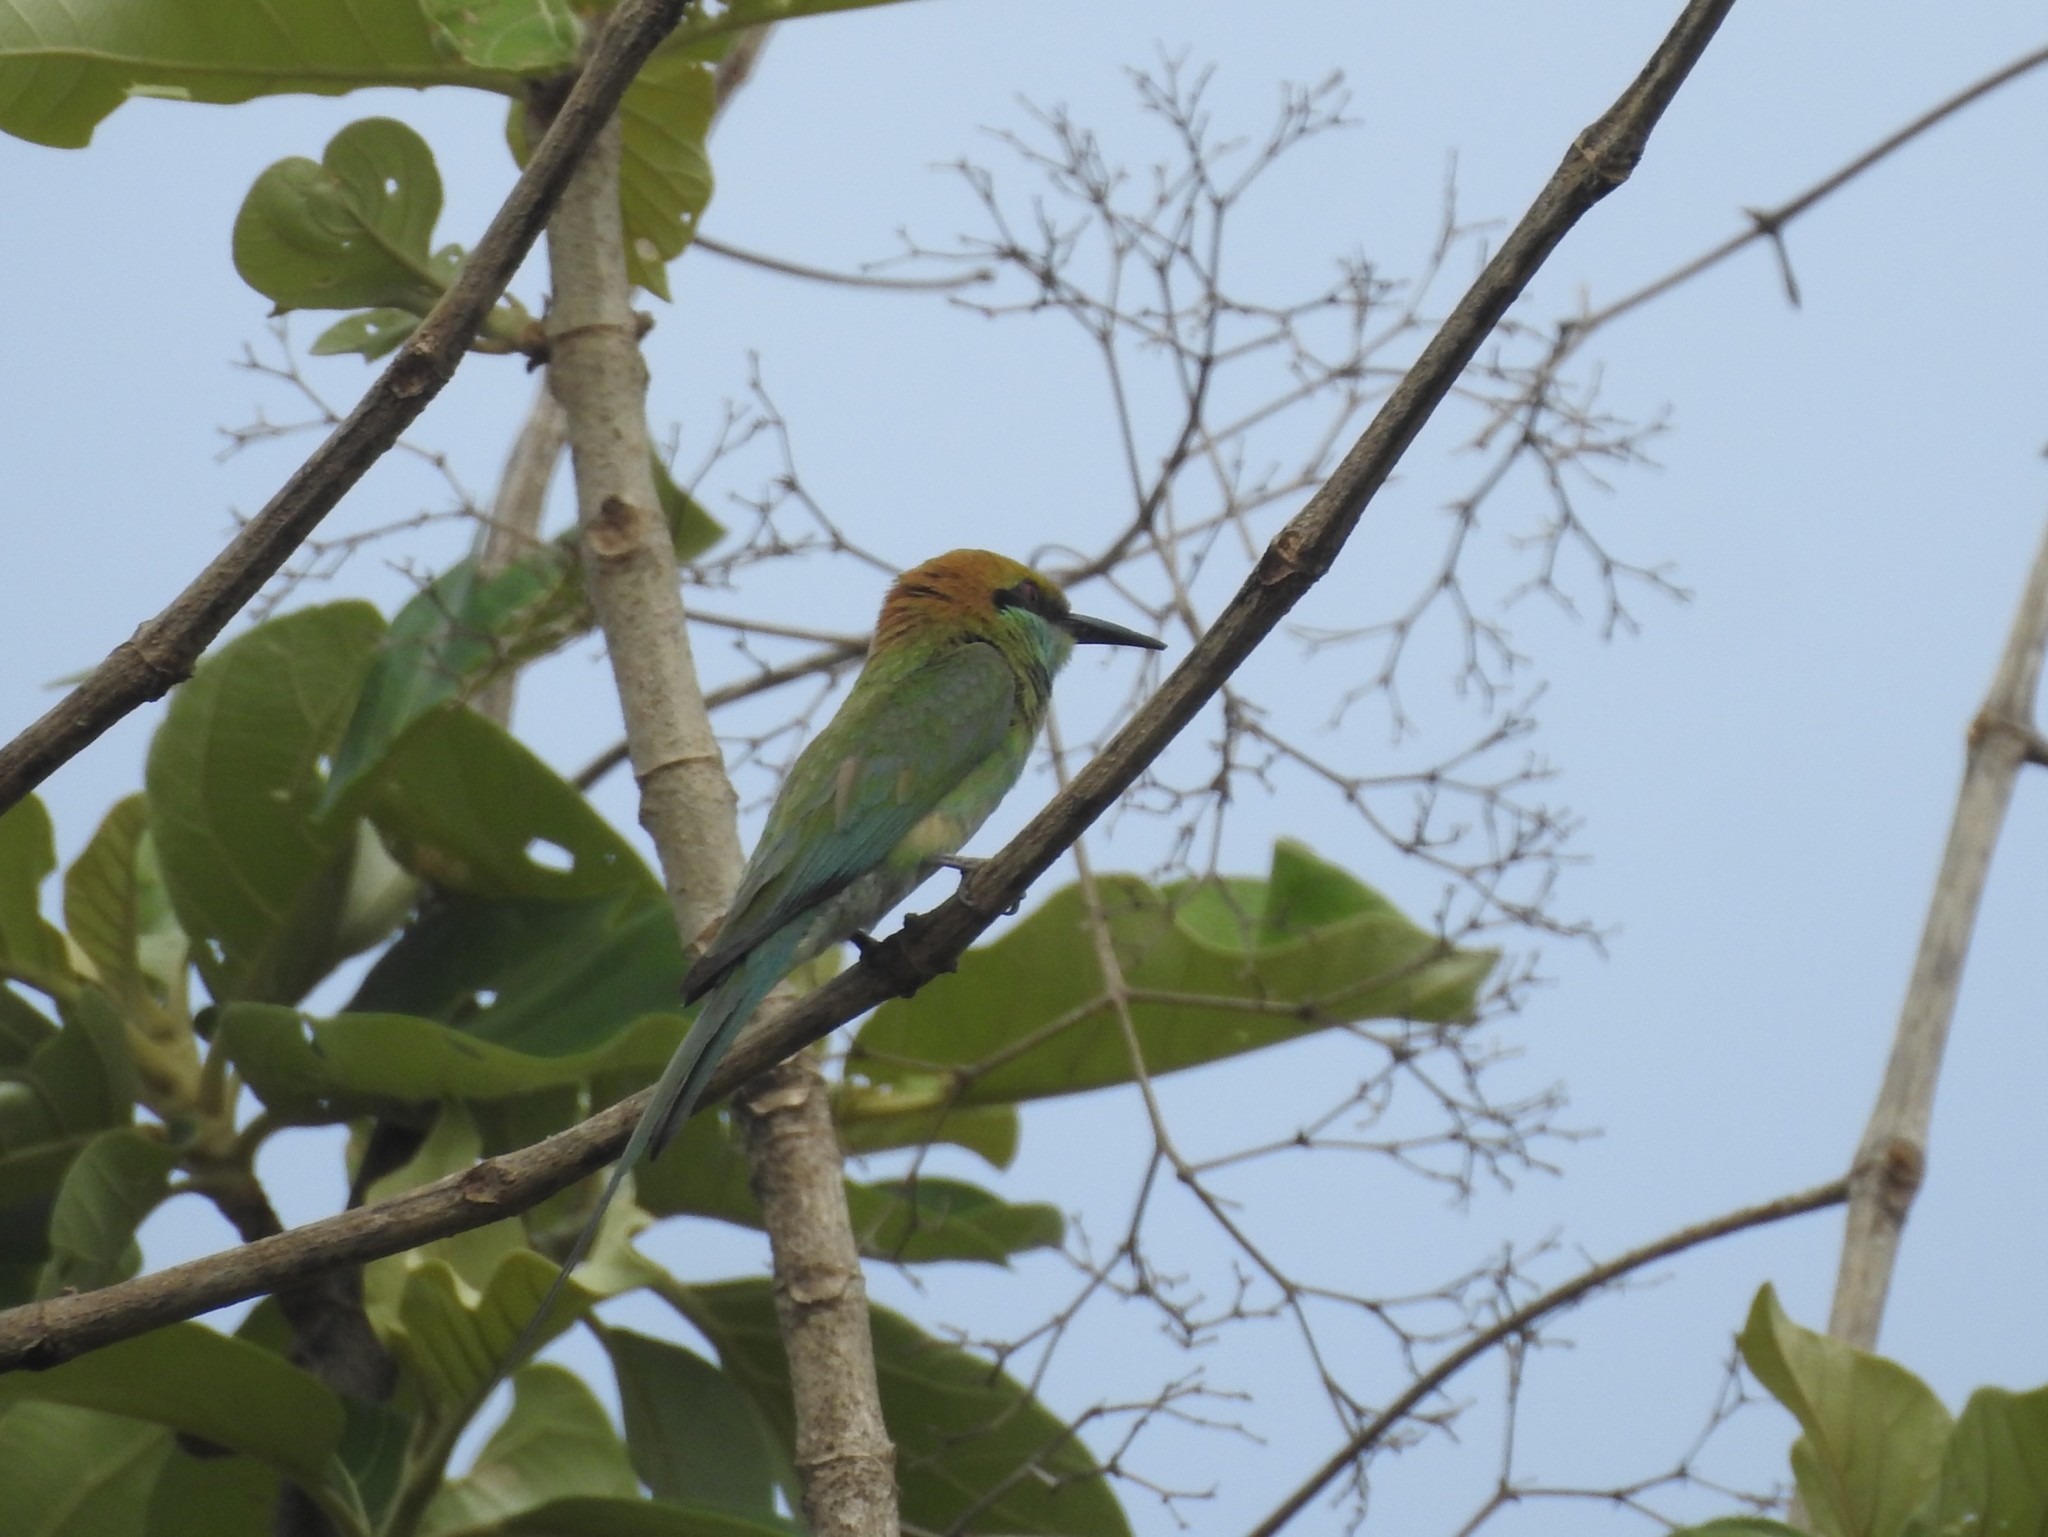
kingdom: Animalia
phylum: Chordata
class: Aves
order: Coraciiformes
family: Meropidae
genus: Merops
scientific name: Merops orientalis
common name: Green bee-eater
